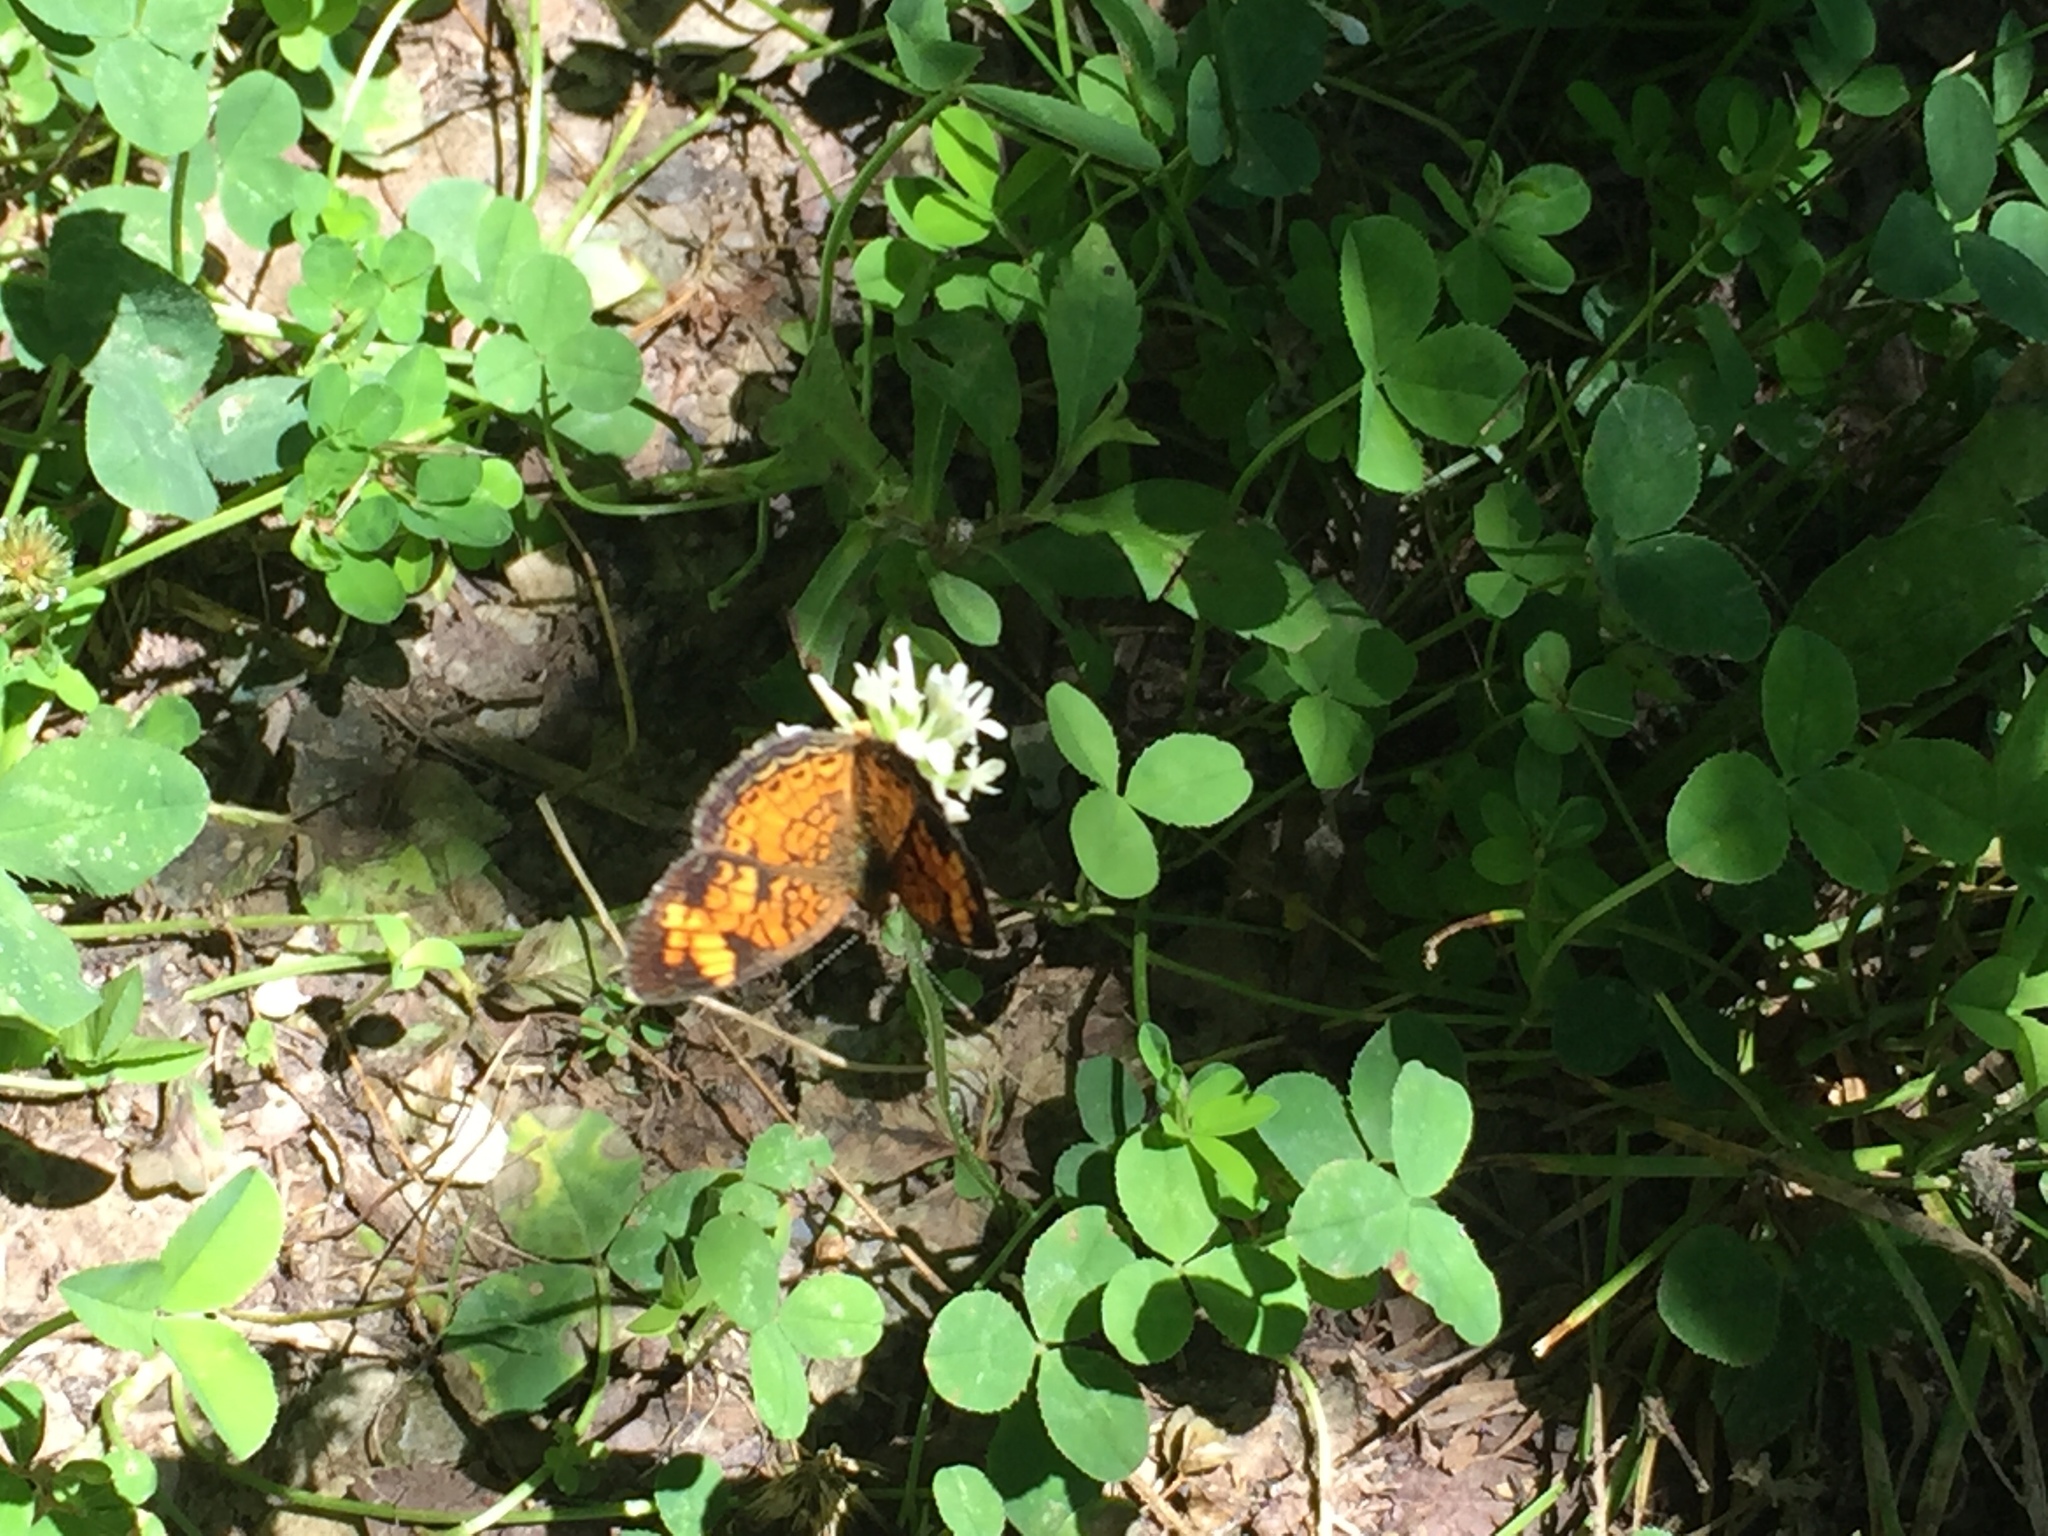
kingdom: Animalia
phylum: Arthropoda
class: Insecta
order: Lepidoptera
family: Nymphalidae
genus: Phyciodes
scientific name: Phyciodes tharos
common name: Pearl crescent
